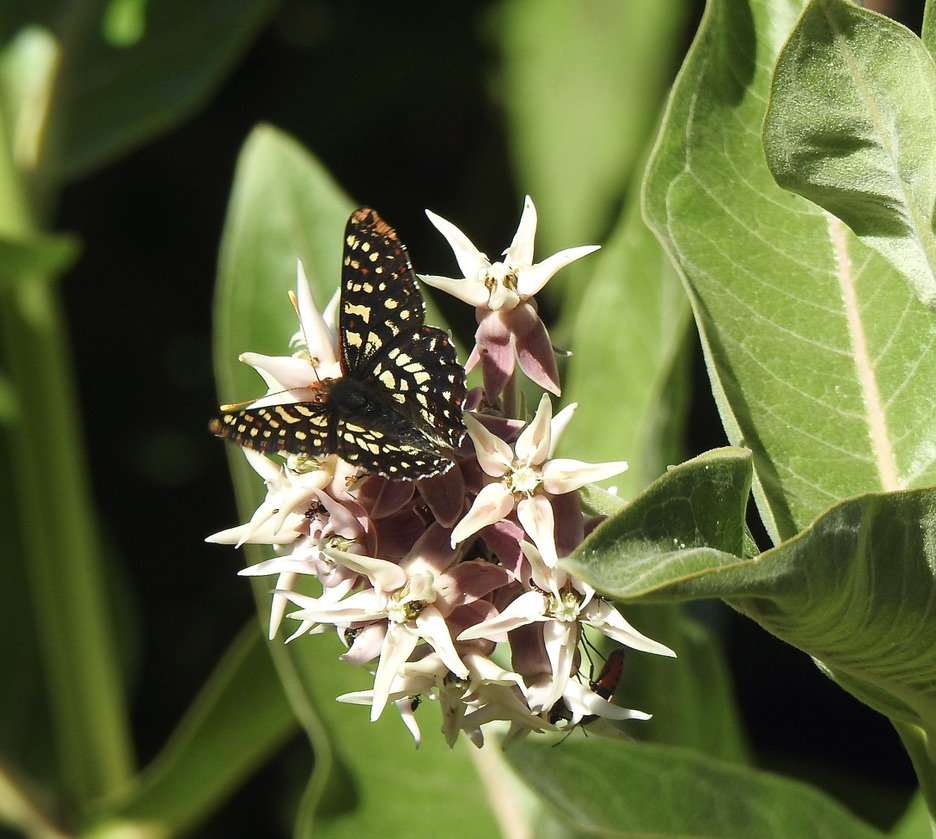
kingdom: Animalia
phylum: Arthropoda
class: Insecta
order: Lepidoptera
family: Nymphalidae
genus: Occidryas
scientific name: Occidryas chalcedona
